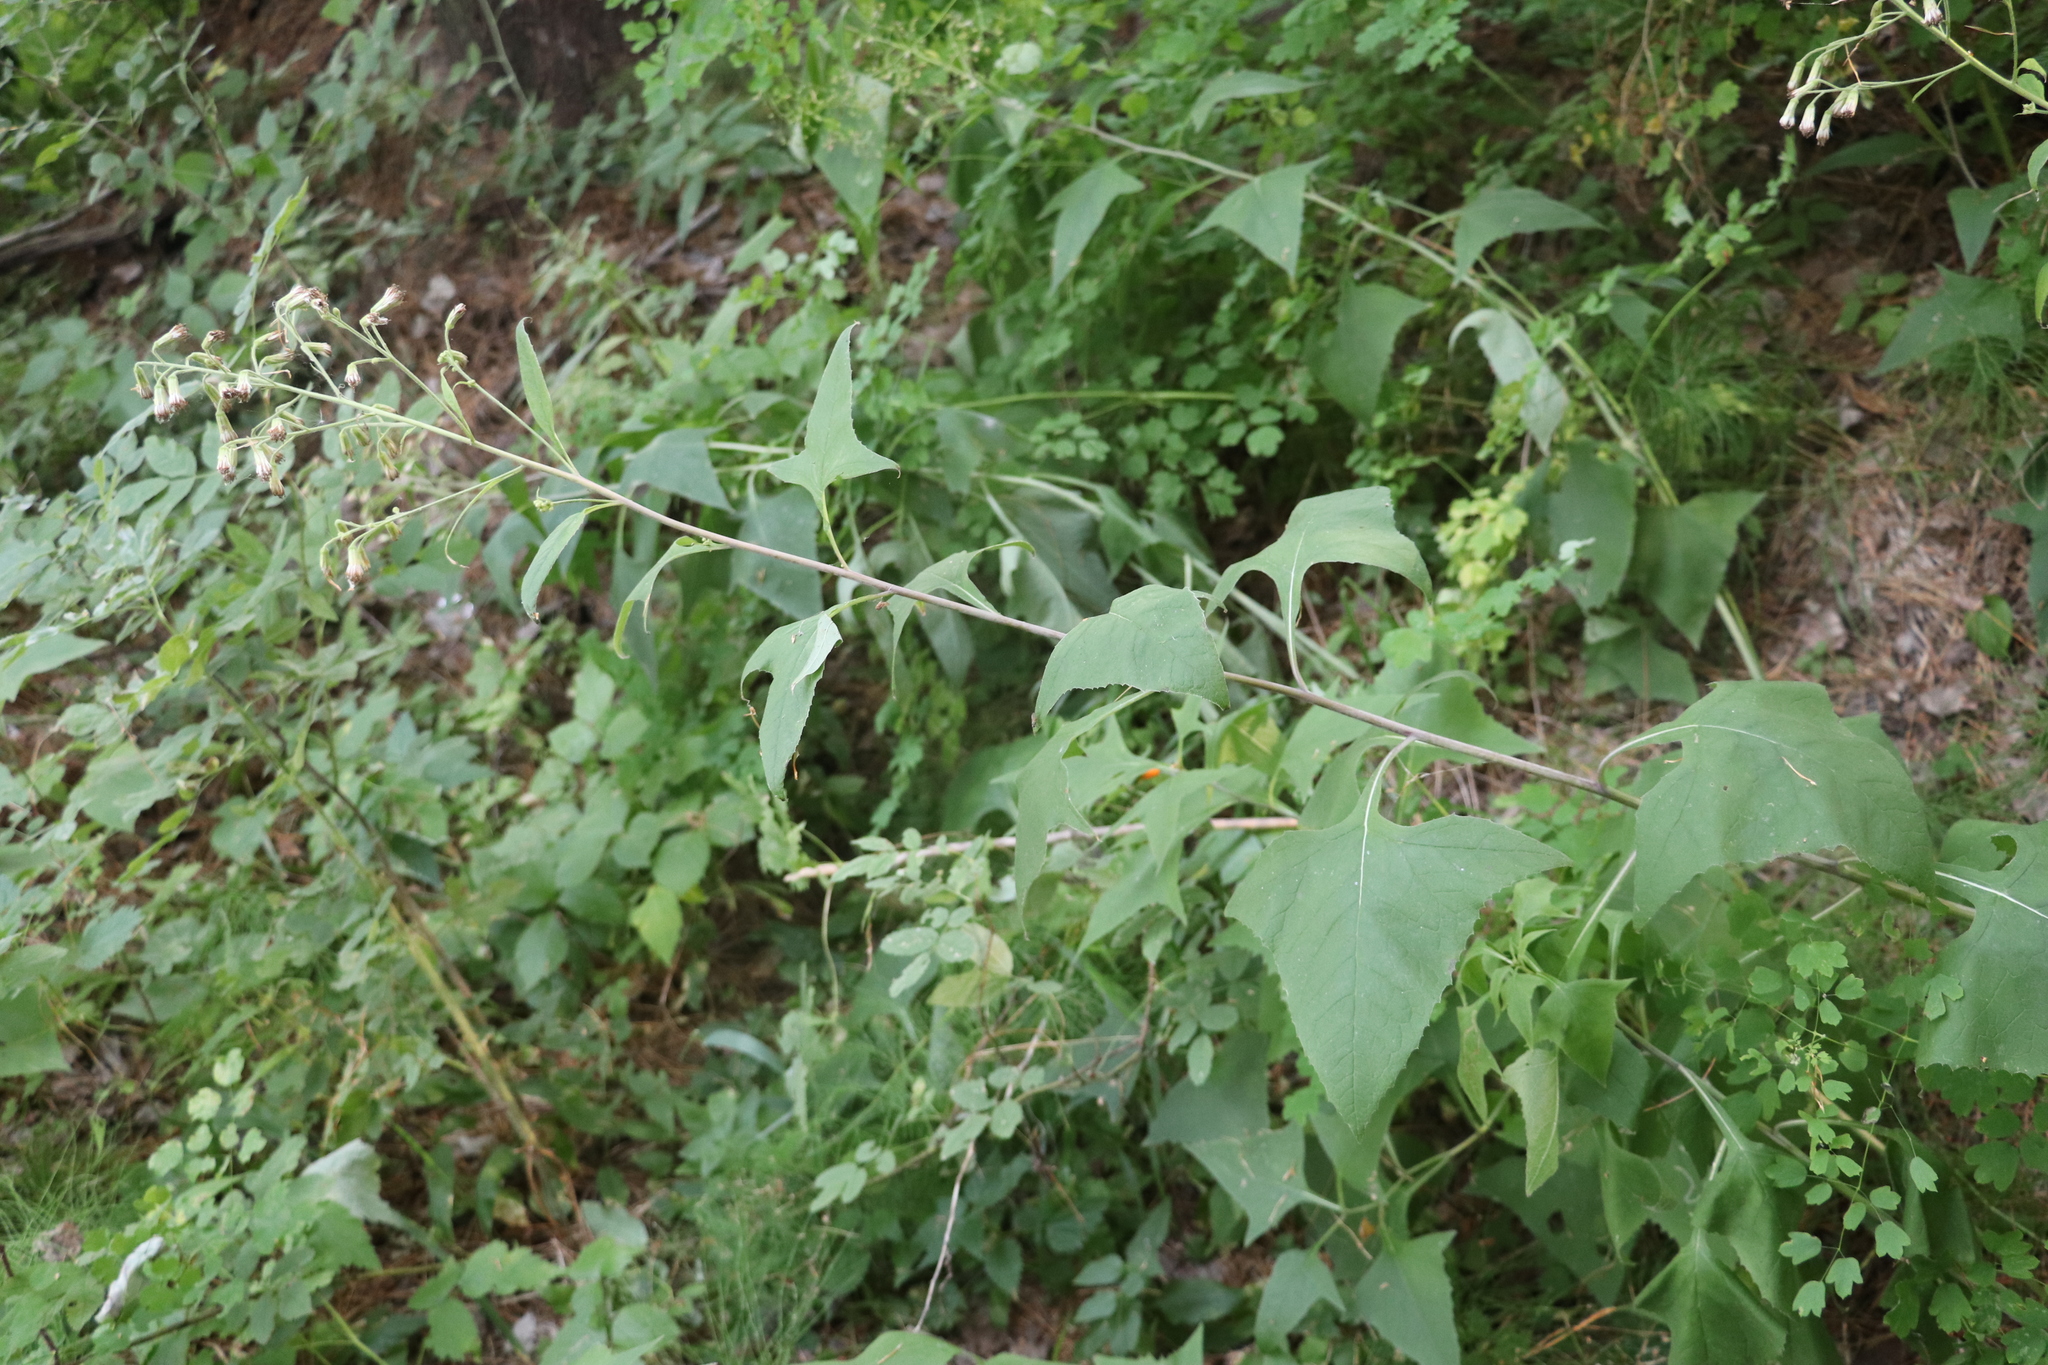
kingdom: Plantae
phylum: Tracheophyta
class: Magnoliopsida
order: Asterales
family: Asteraceae
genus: Parasenecio
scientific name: Parasenecio hastatus
